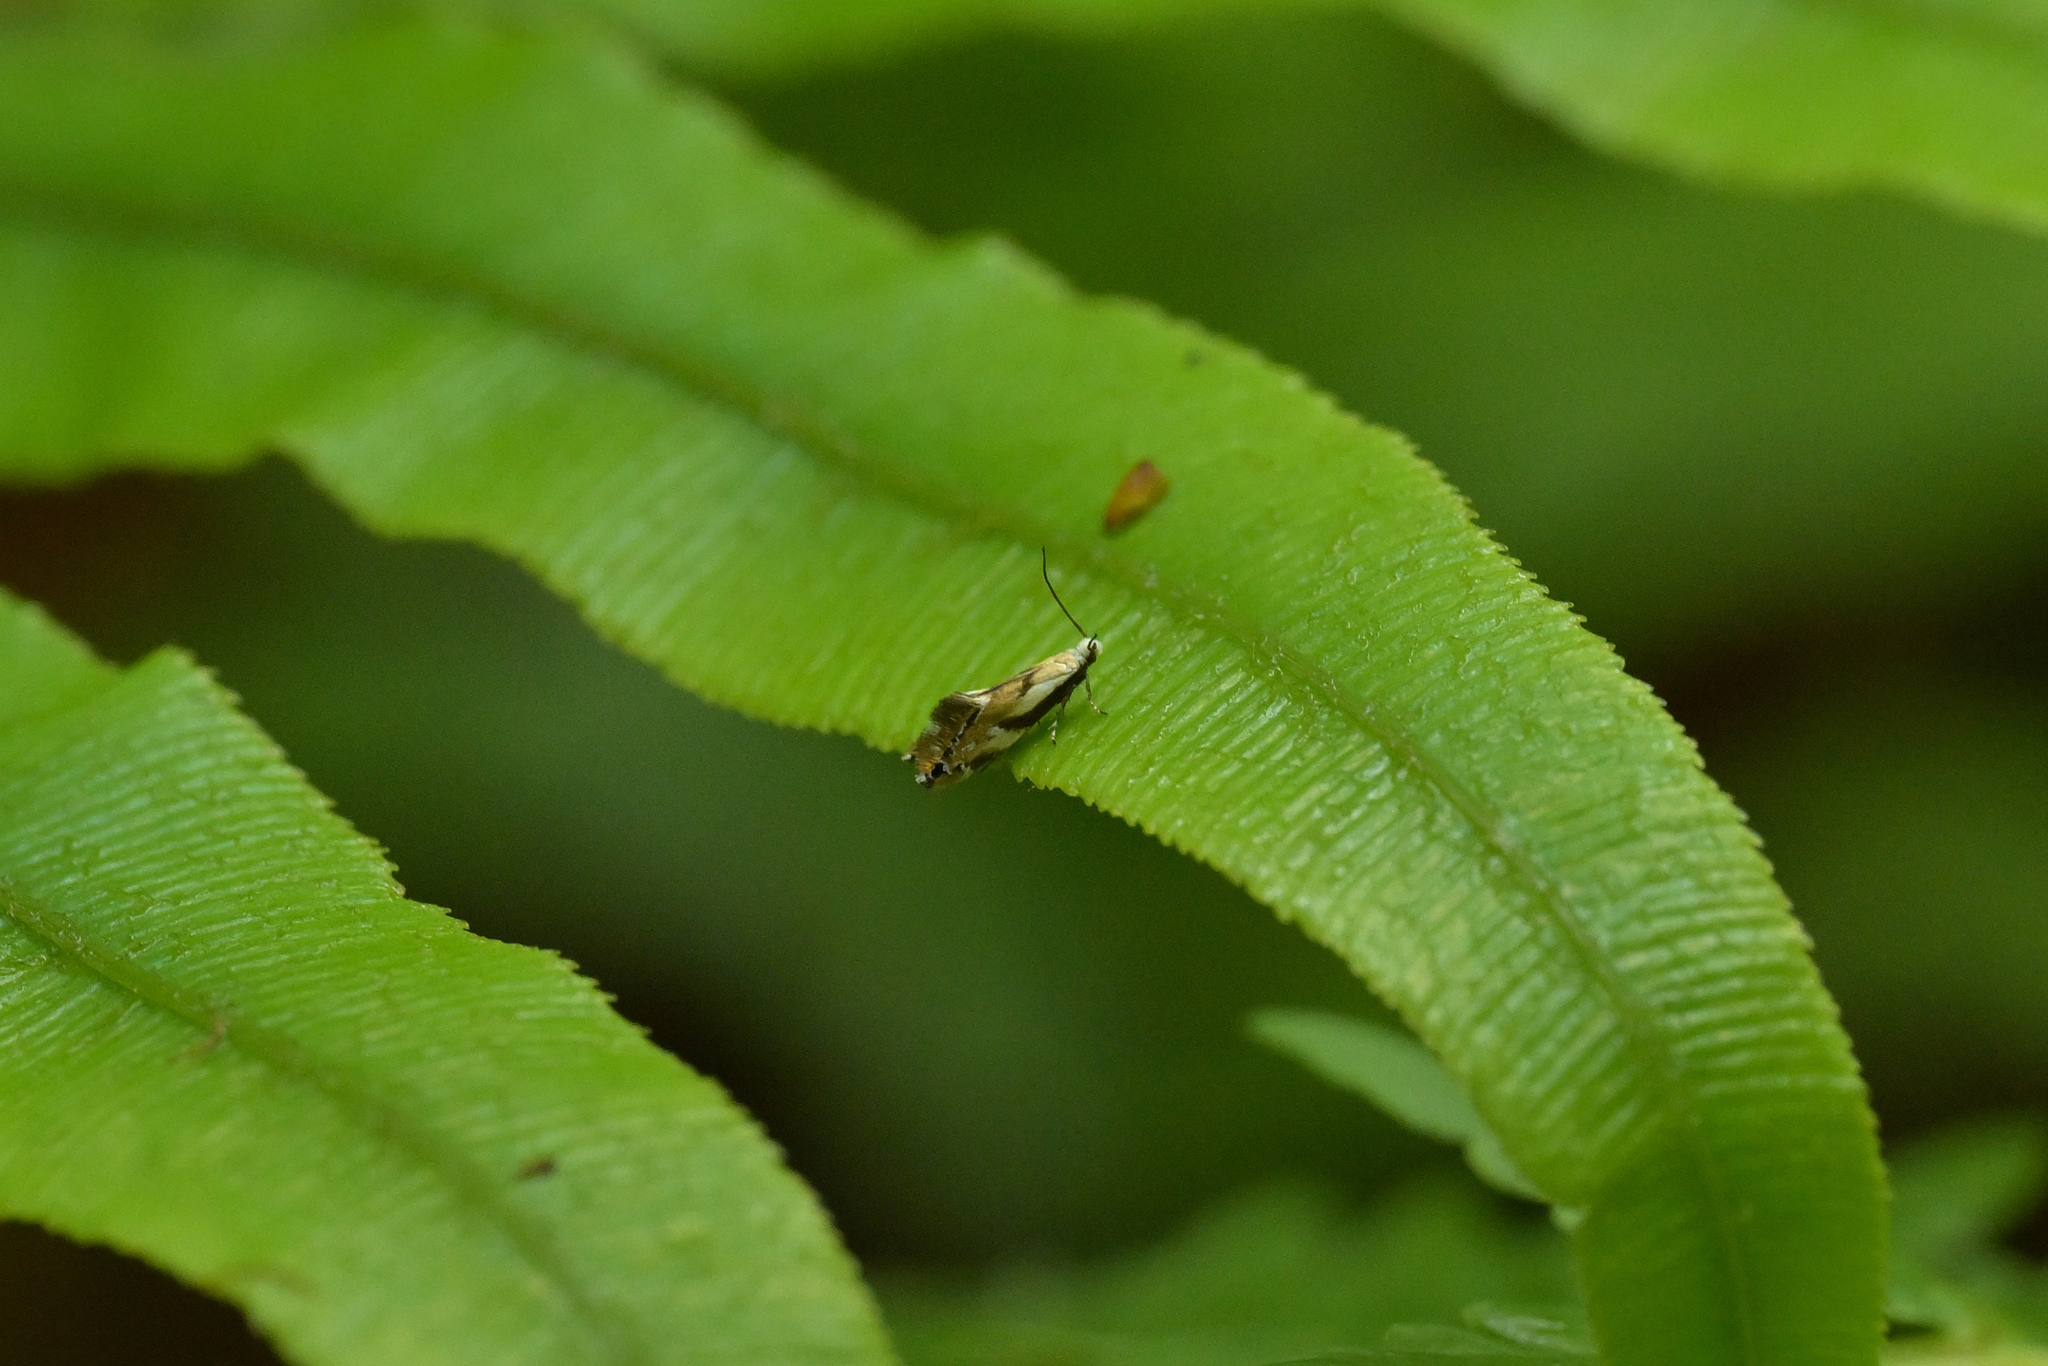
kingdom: Animalia
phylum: Arthropoda
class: Insecta
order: Lepidoptera
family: Mnesarchaeidae
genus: Mnesarchella
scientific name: Mnesarchella acuta
